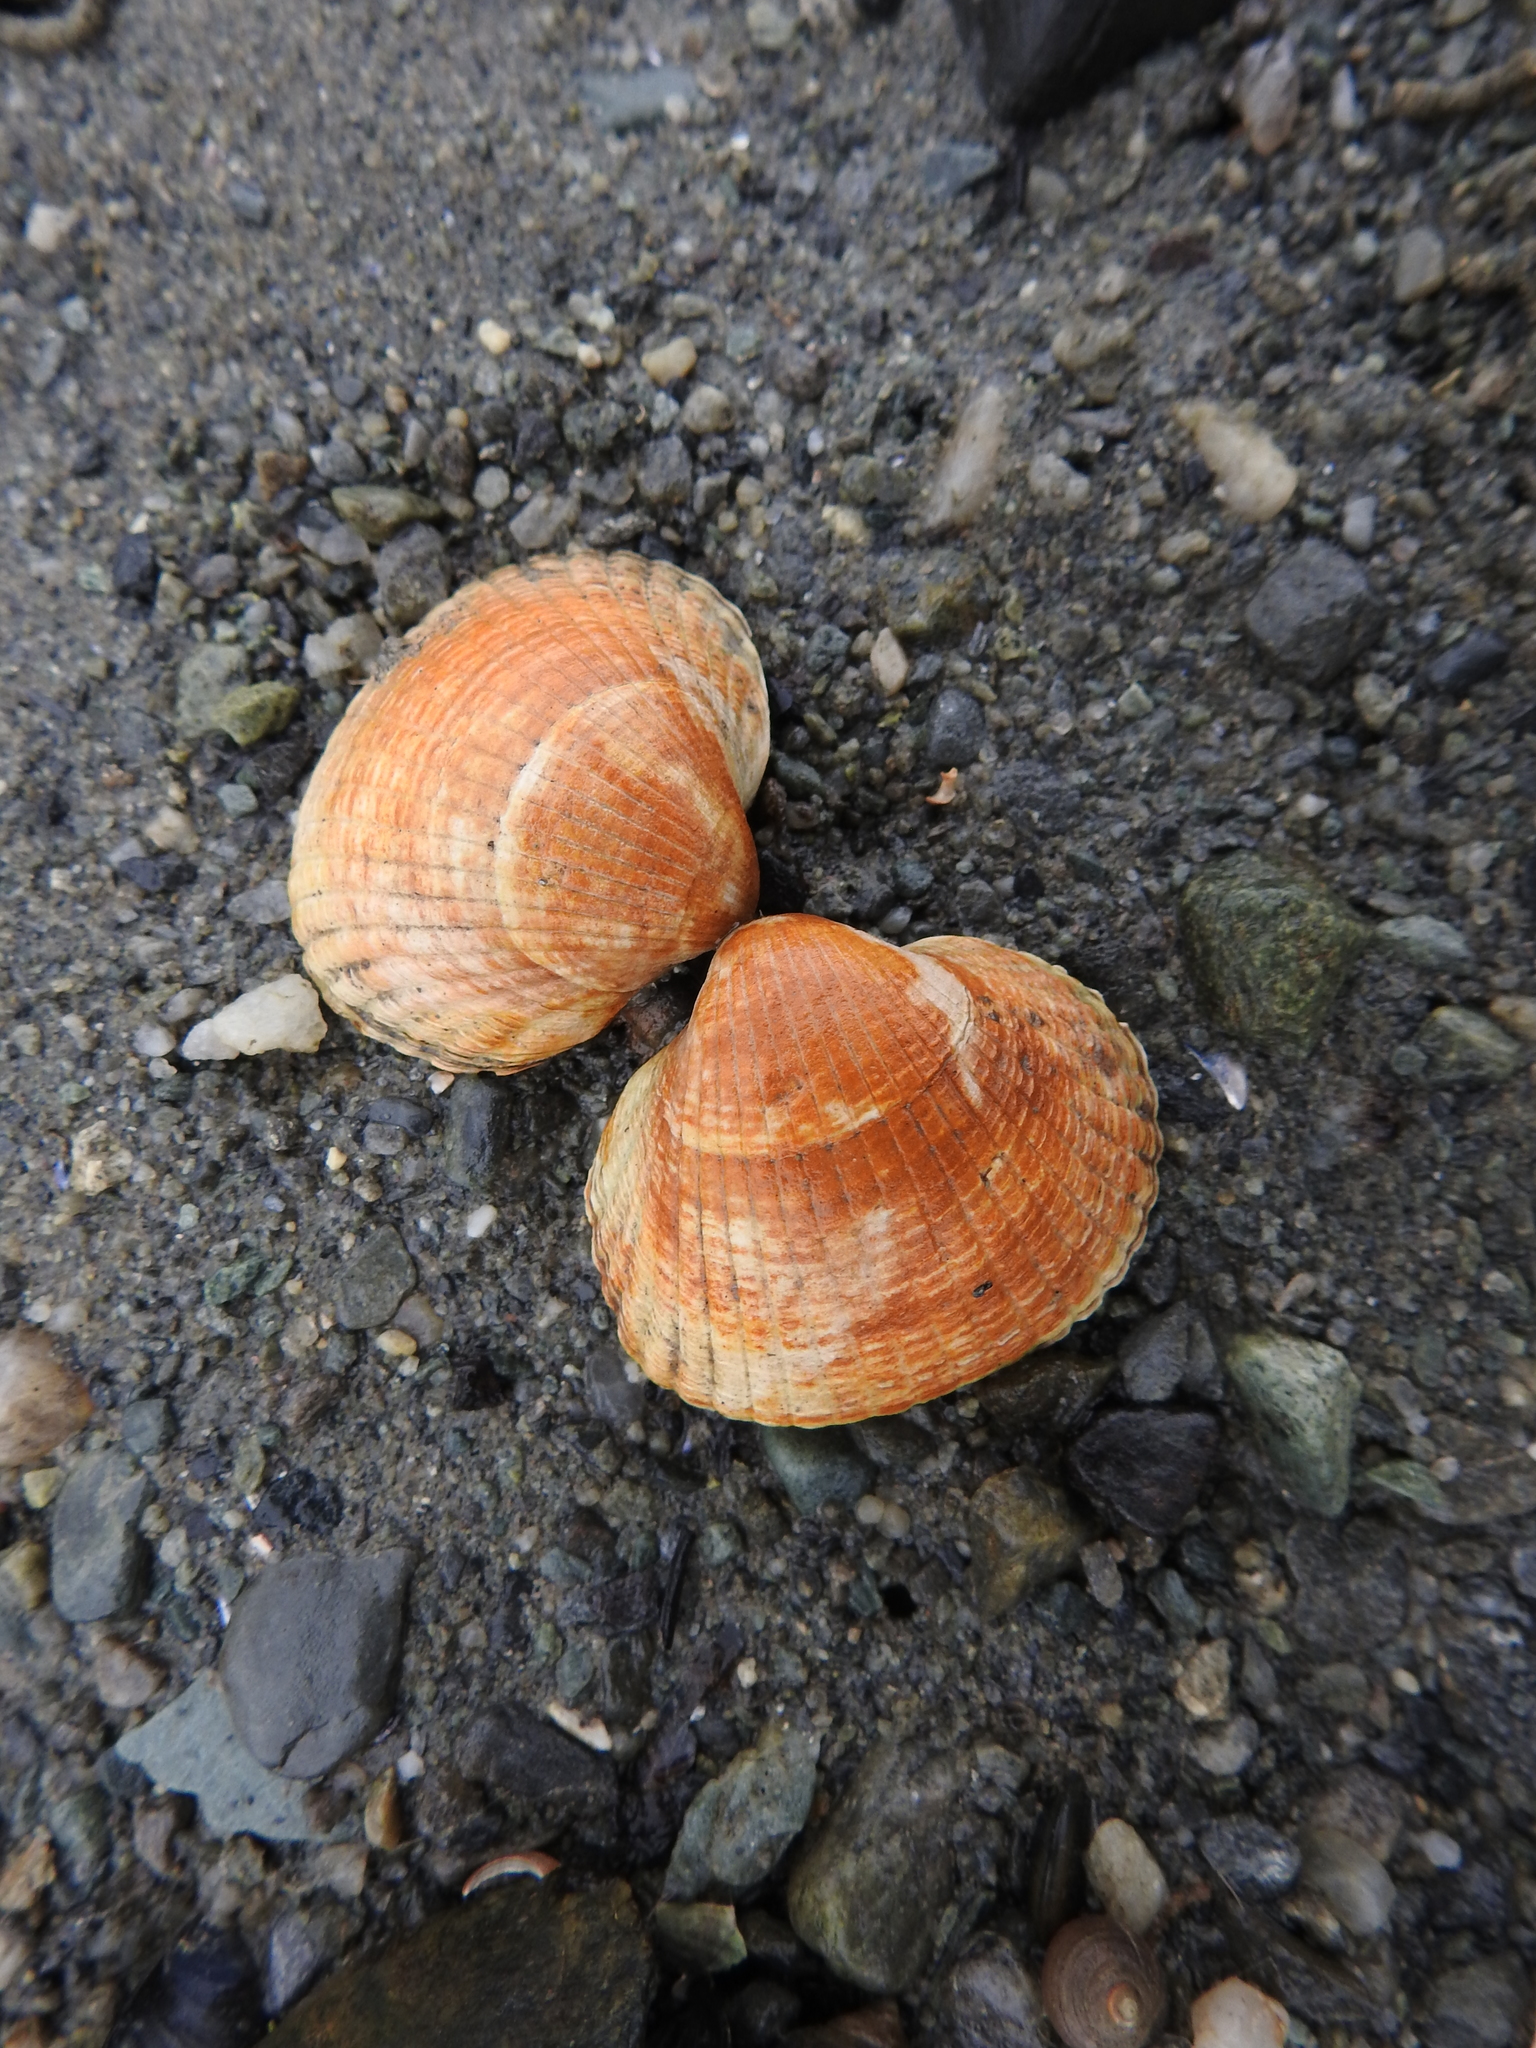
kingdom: Animalia
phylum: Mollusca
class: Bivalvia
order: Cardiida
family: Cardiidae
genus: Cerastoderma
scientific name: Cerastoderma edule
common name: Common cockle
